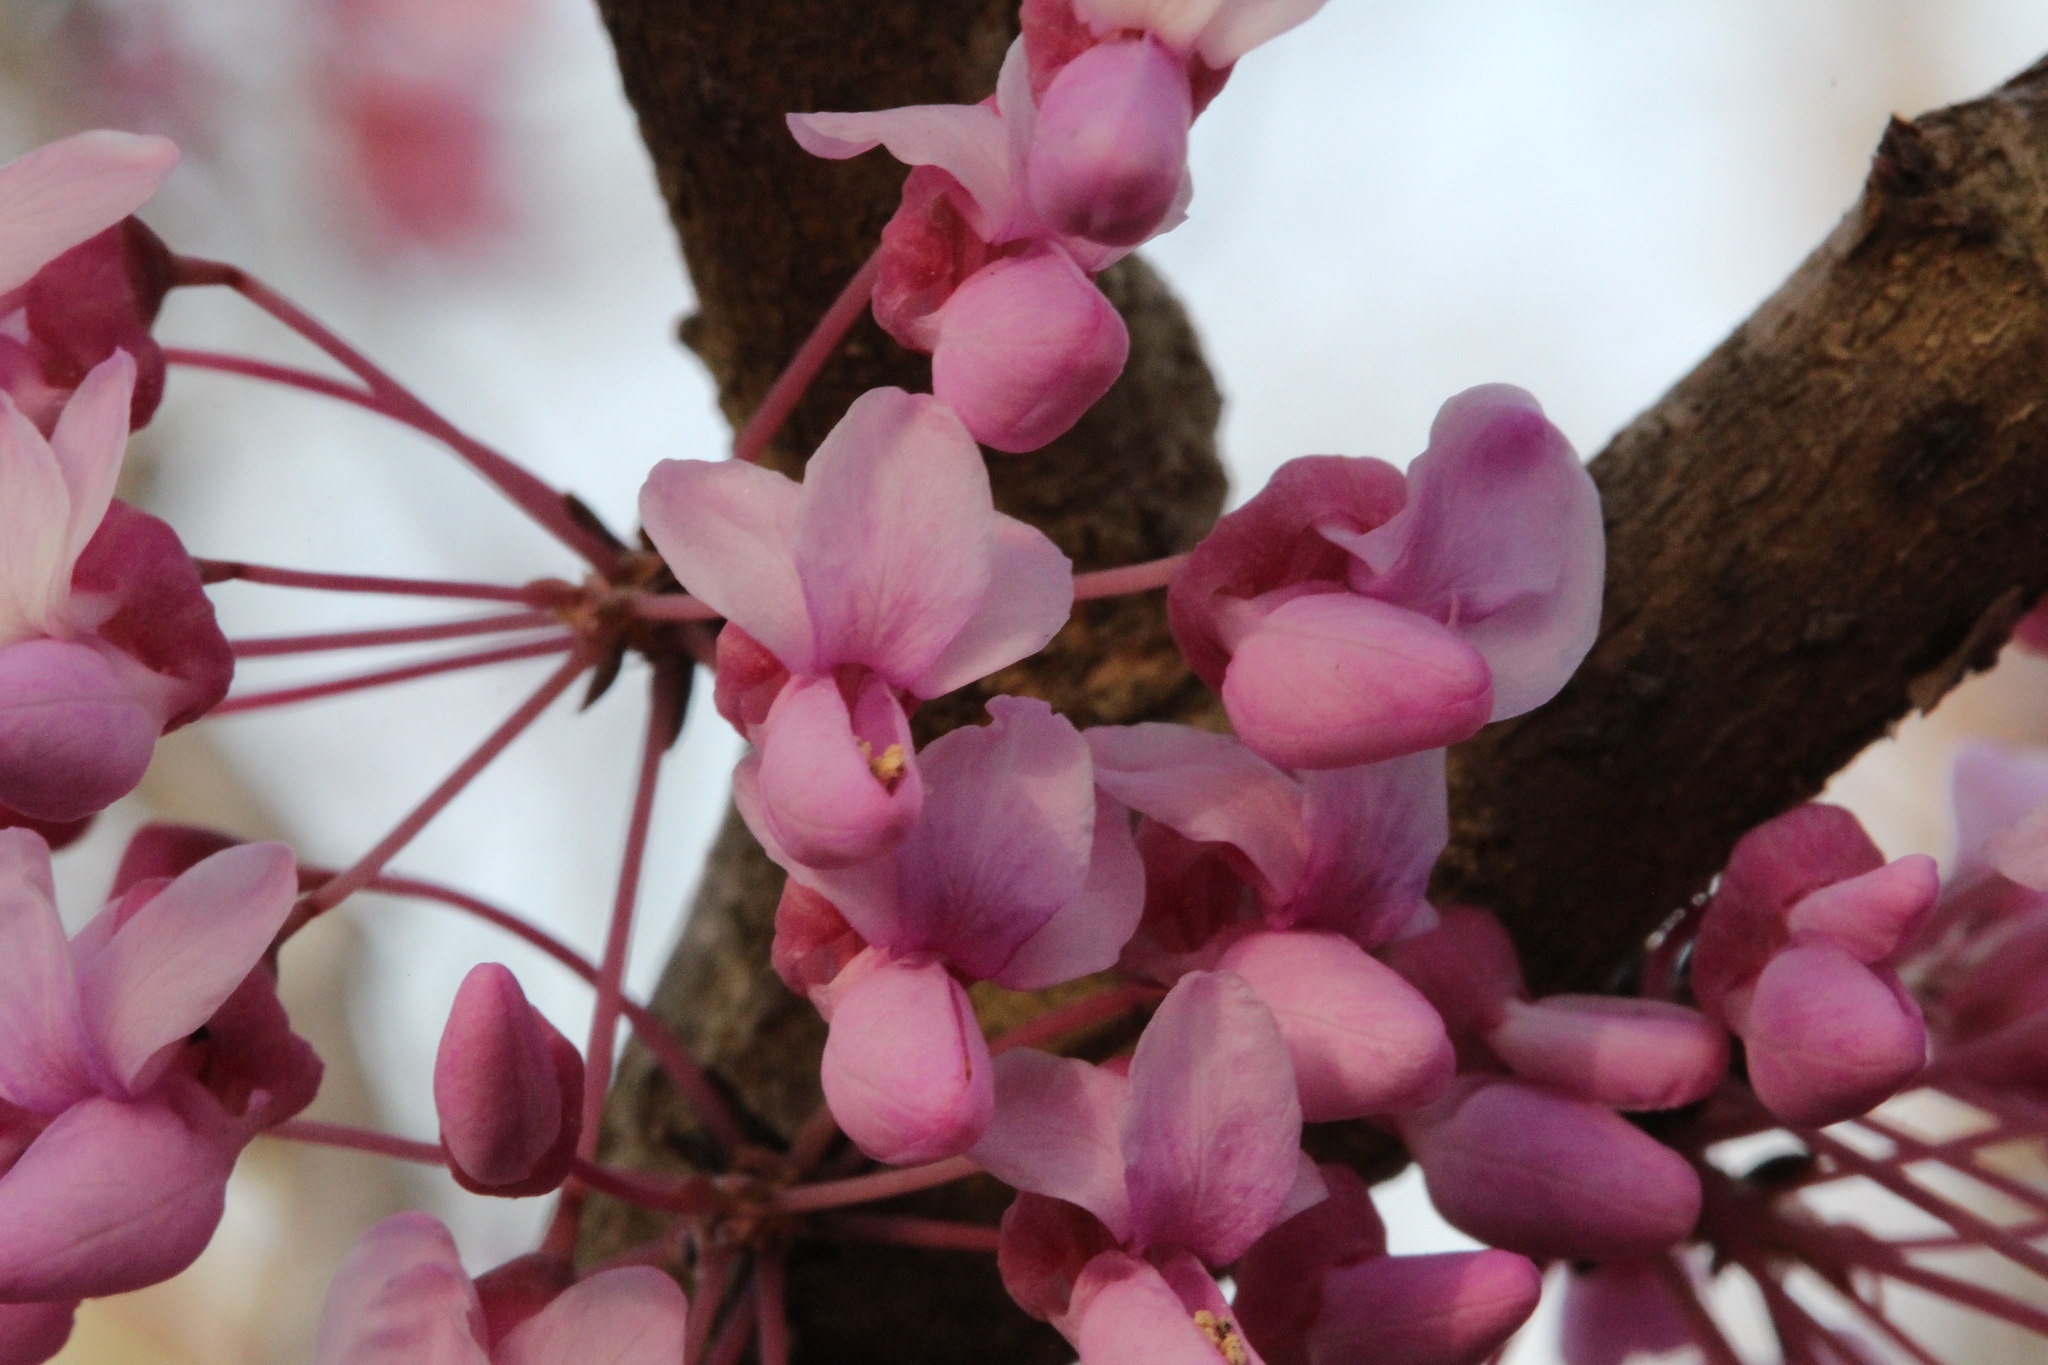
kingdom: Plantae
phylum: Tracheophyta
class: Magnoliopsida
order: Fabales
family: Fabaceae
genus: Cercis
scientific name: Cercis canadensis
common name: Eastern redbud
